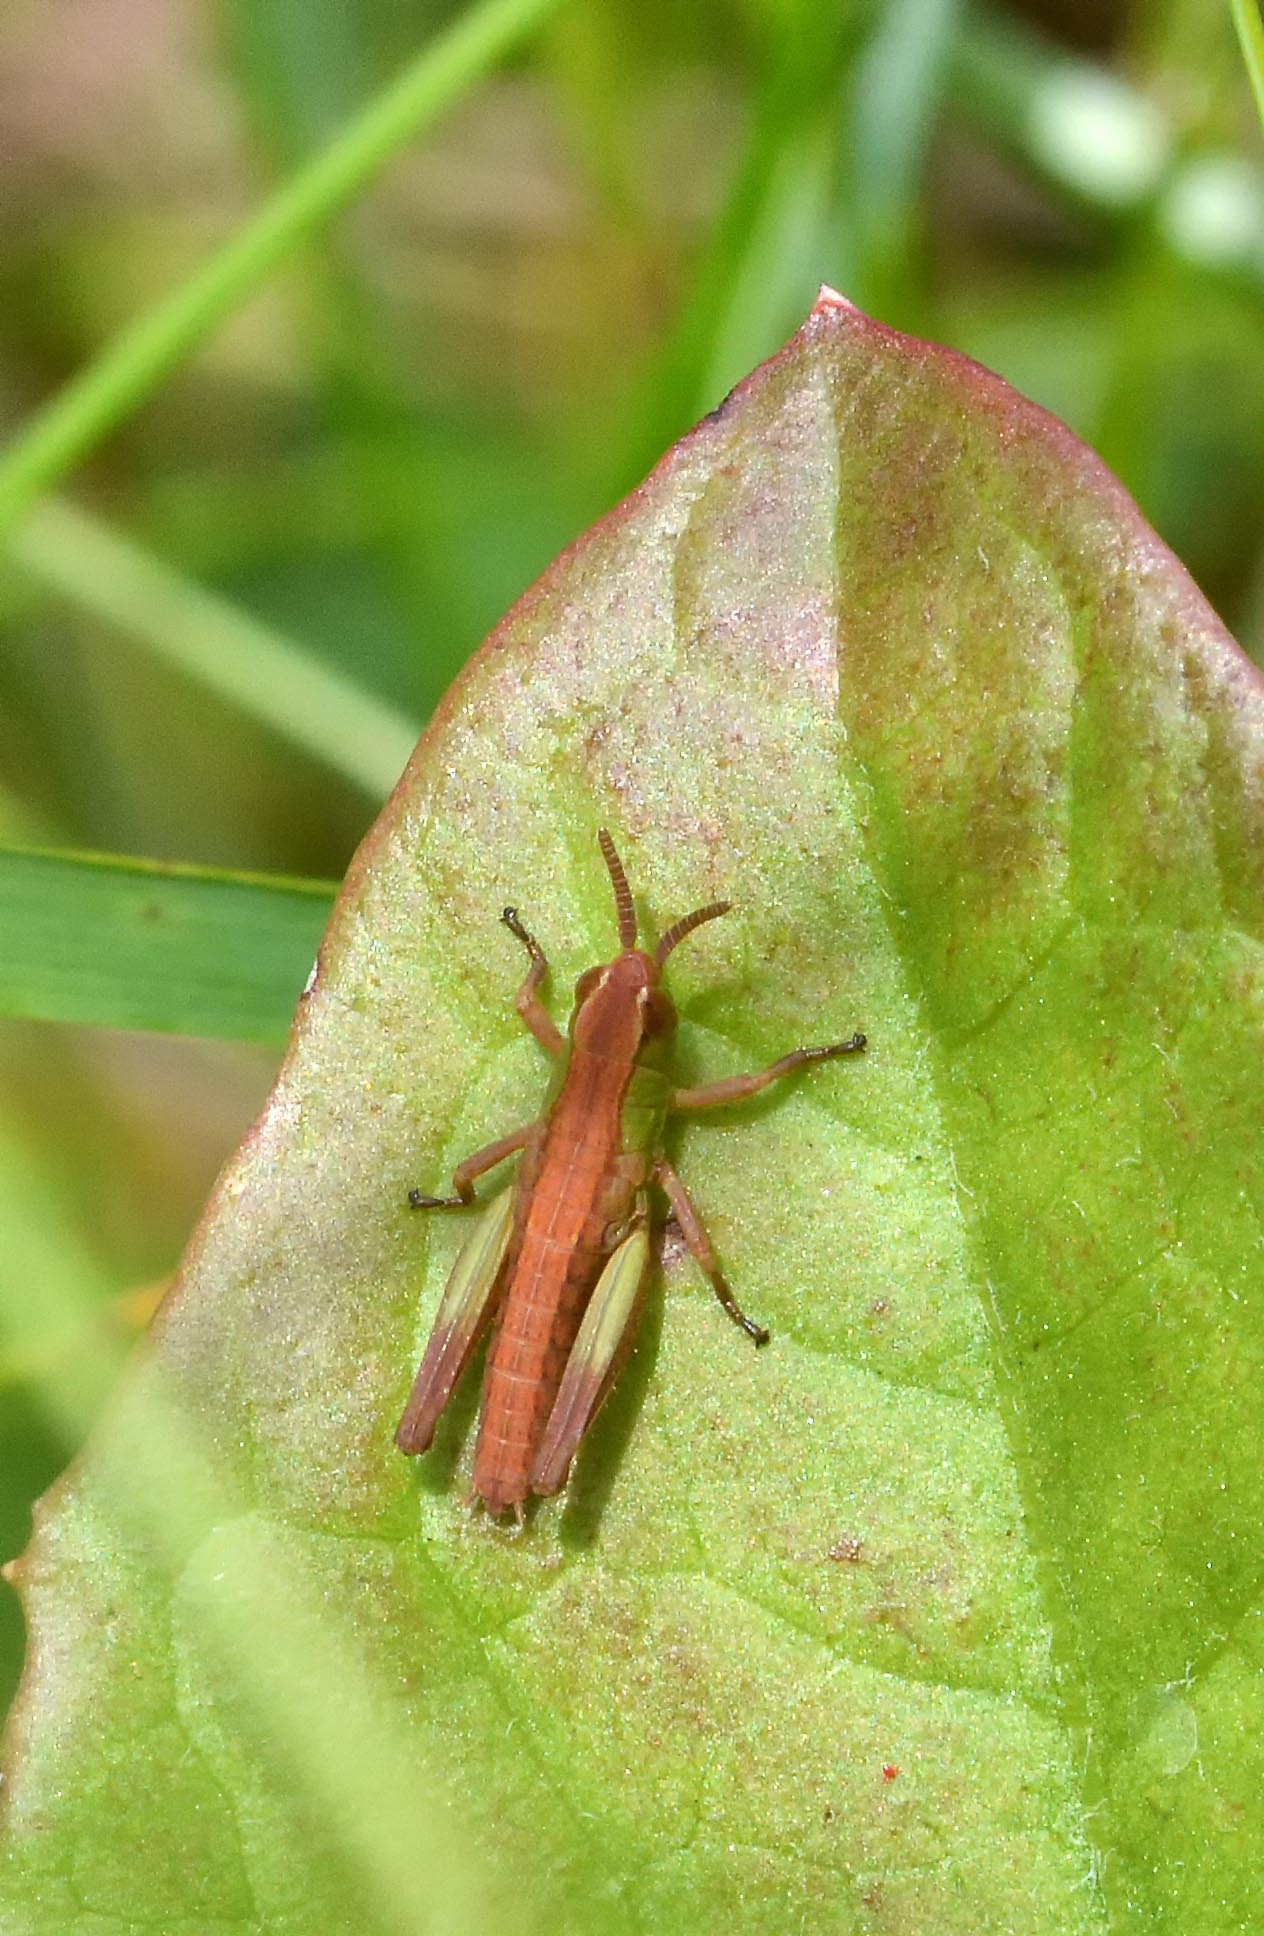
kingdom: Animalia
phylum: Arthropoda
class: Insecta
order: Orthoptera
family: Acrididae
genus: Pseudochorthippus
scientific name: Pseudochorthippus parallelus
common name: Meadow grasshopper
